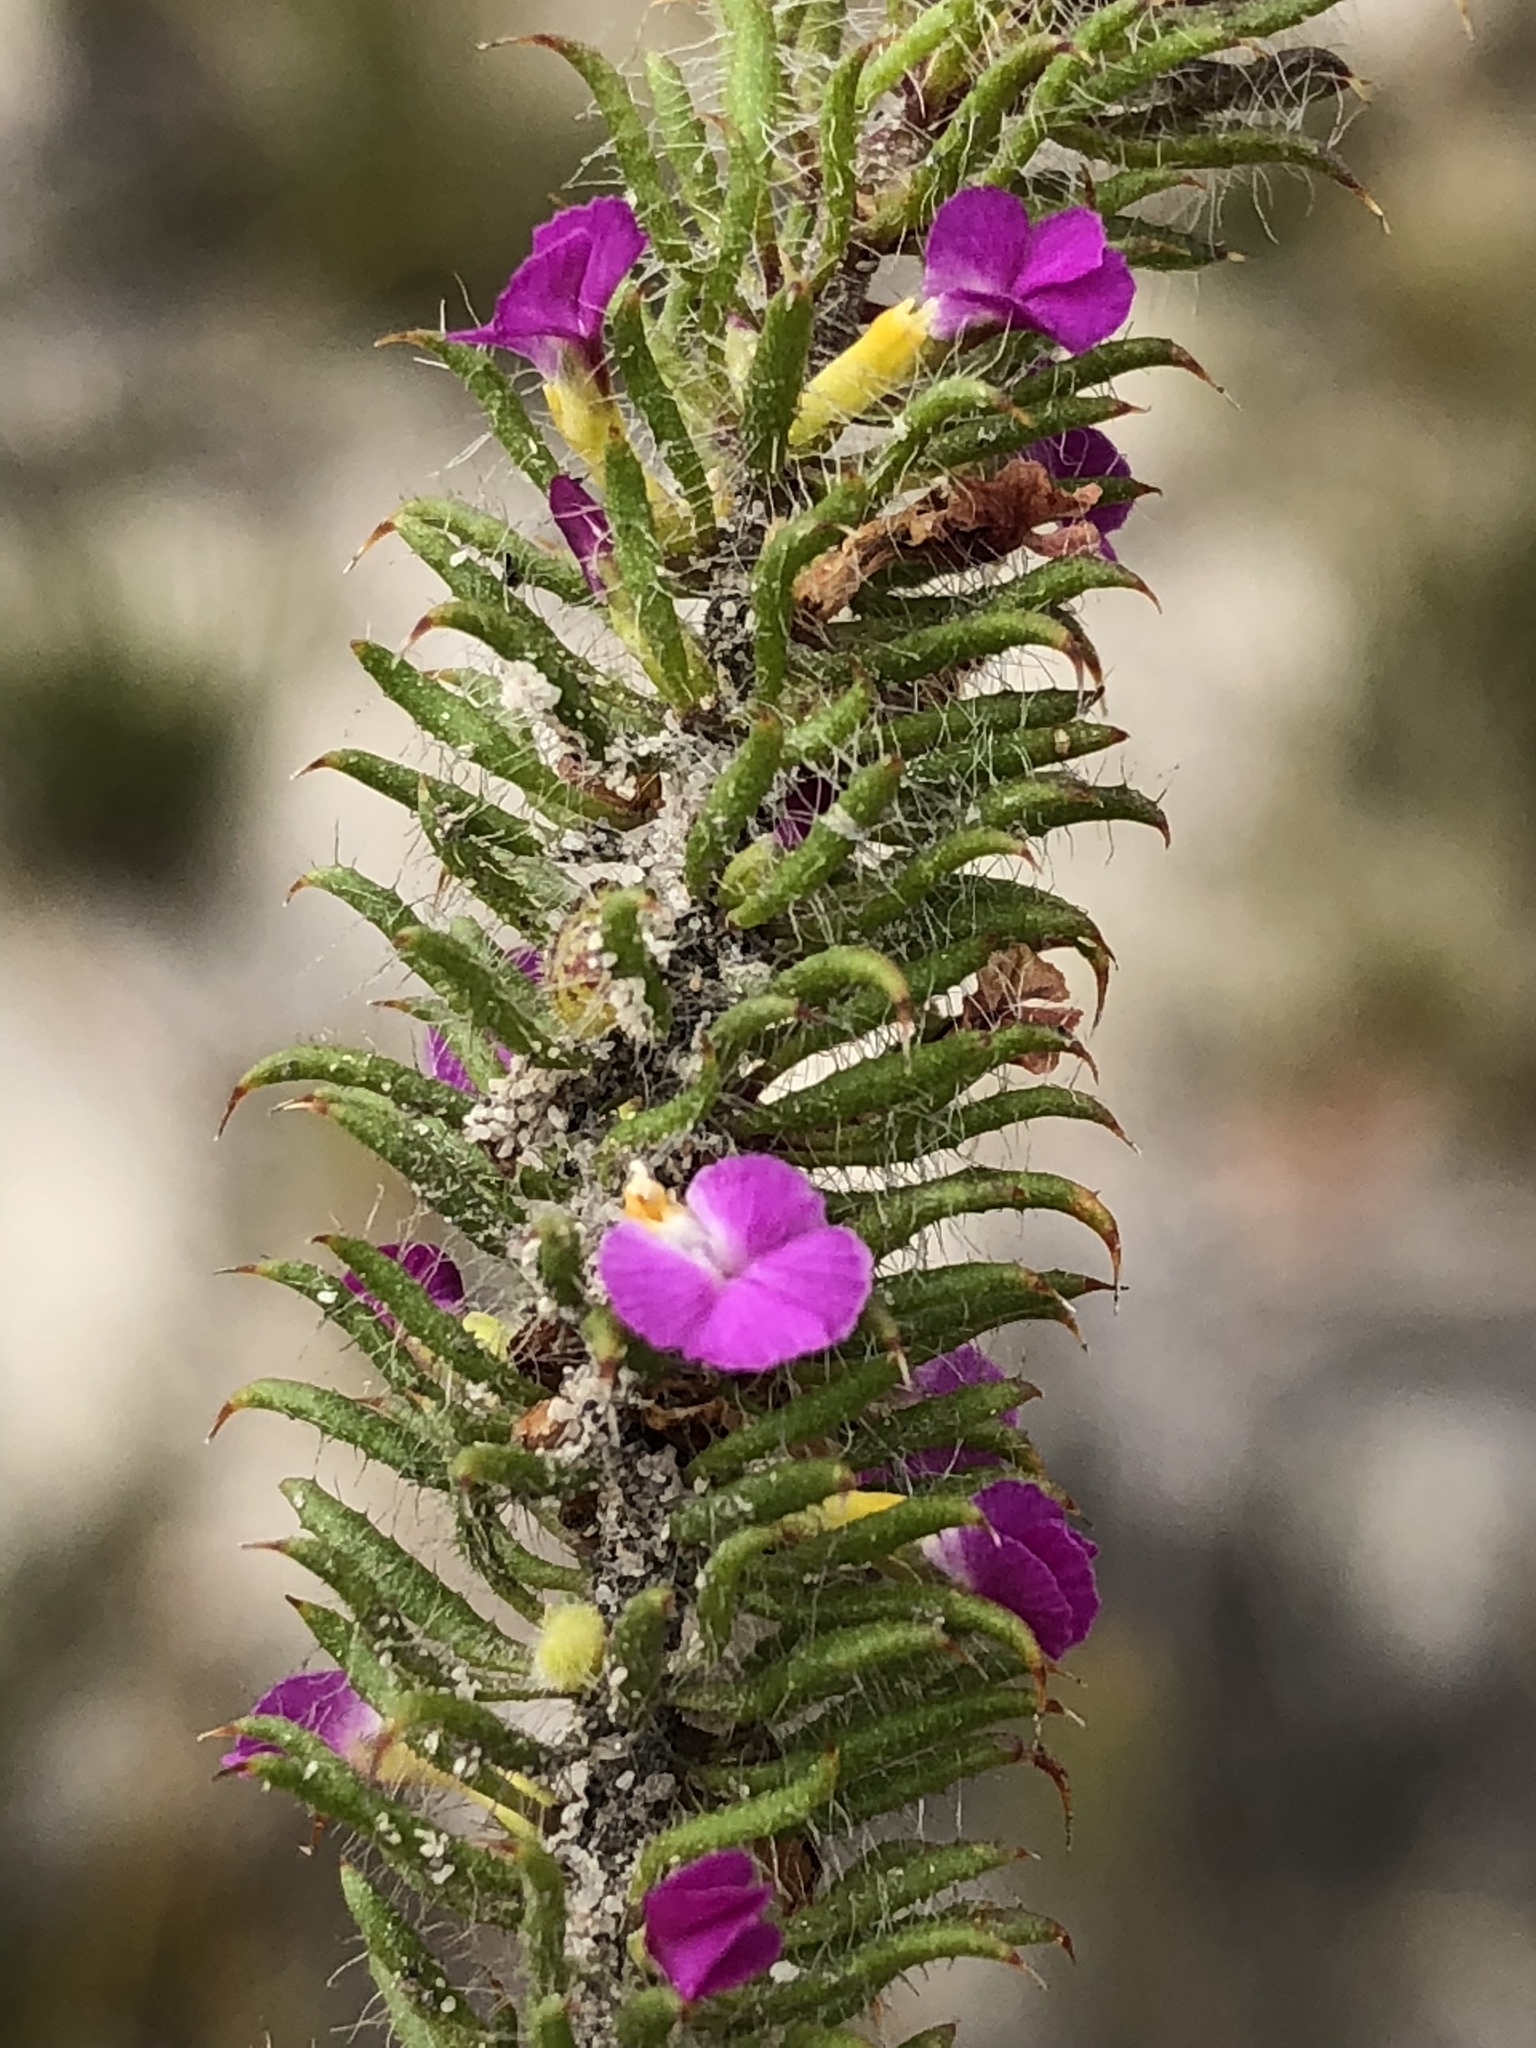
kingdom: Plantae
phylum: Tracheophyta
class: Magnoliopsida
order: Fabales
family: Polygalaceae
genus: Muraltia
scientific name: Muraltia ciliaris
